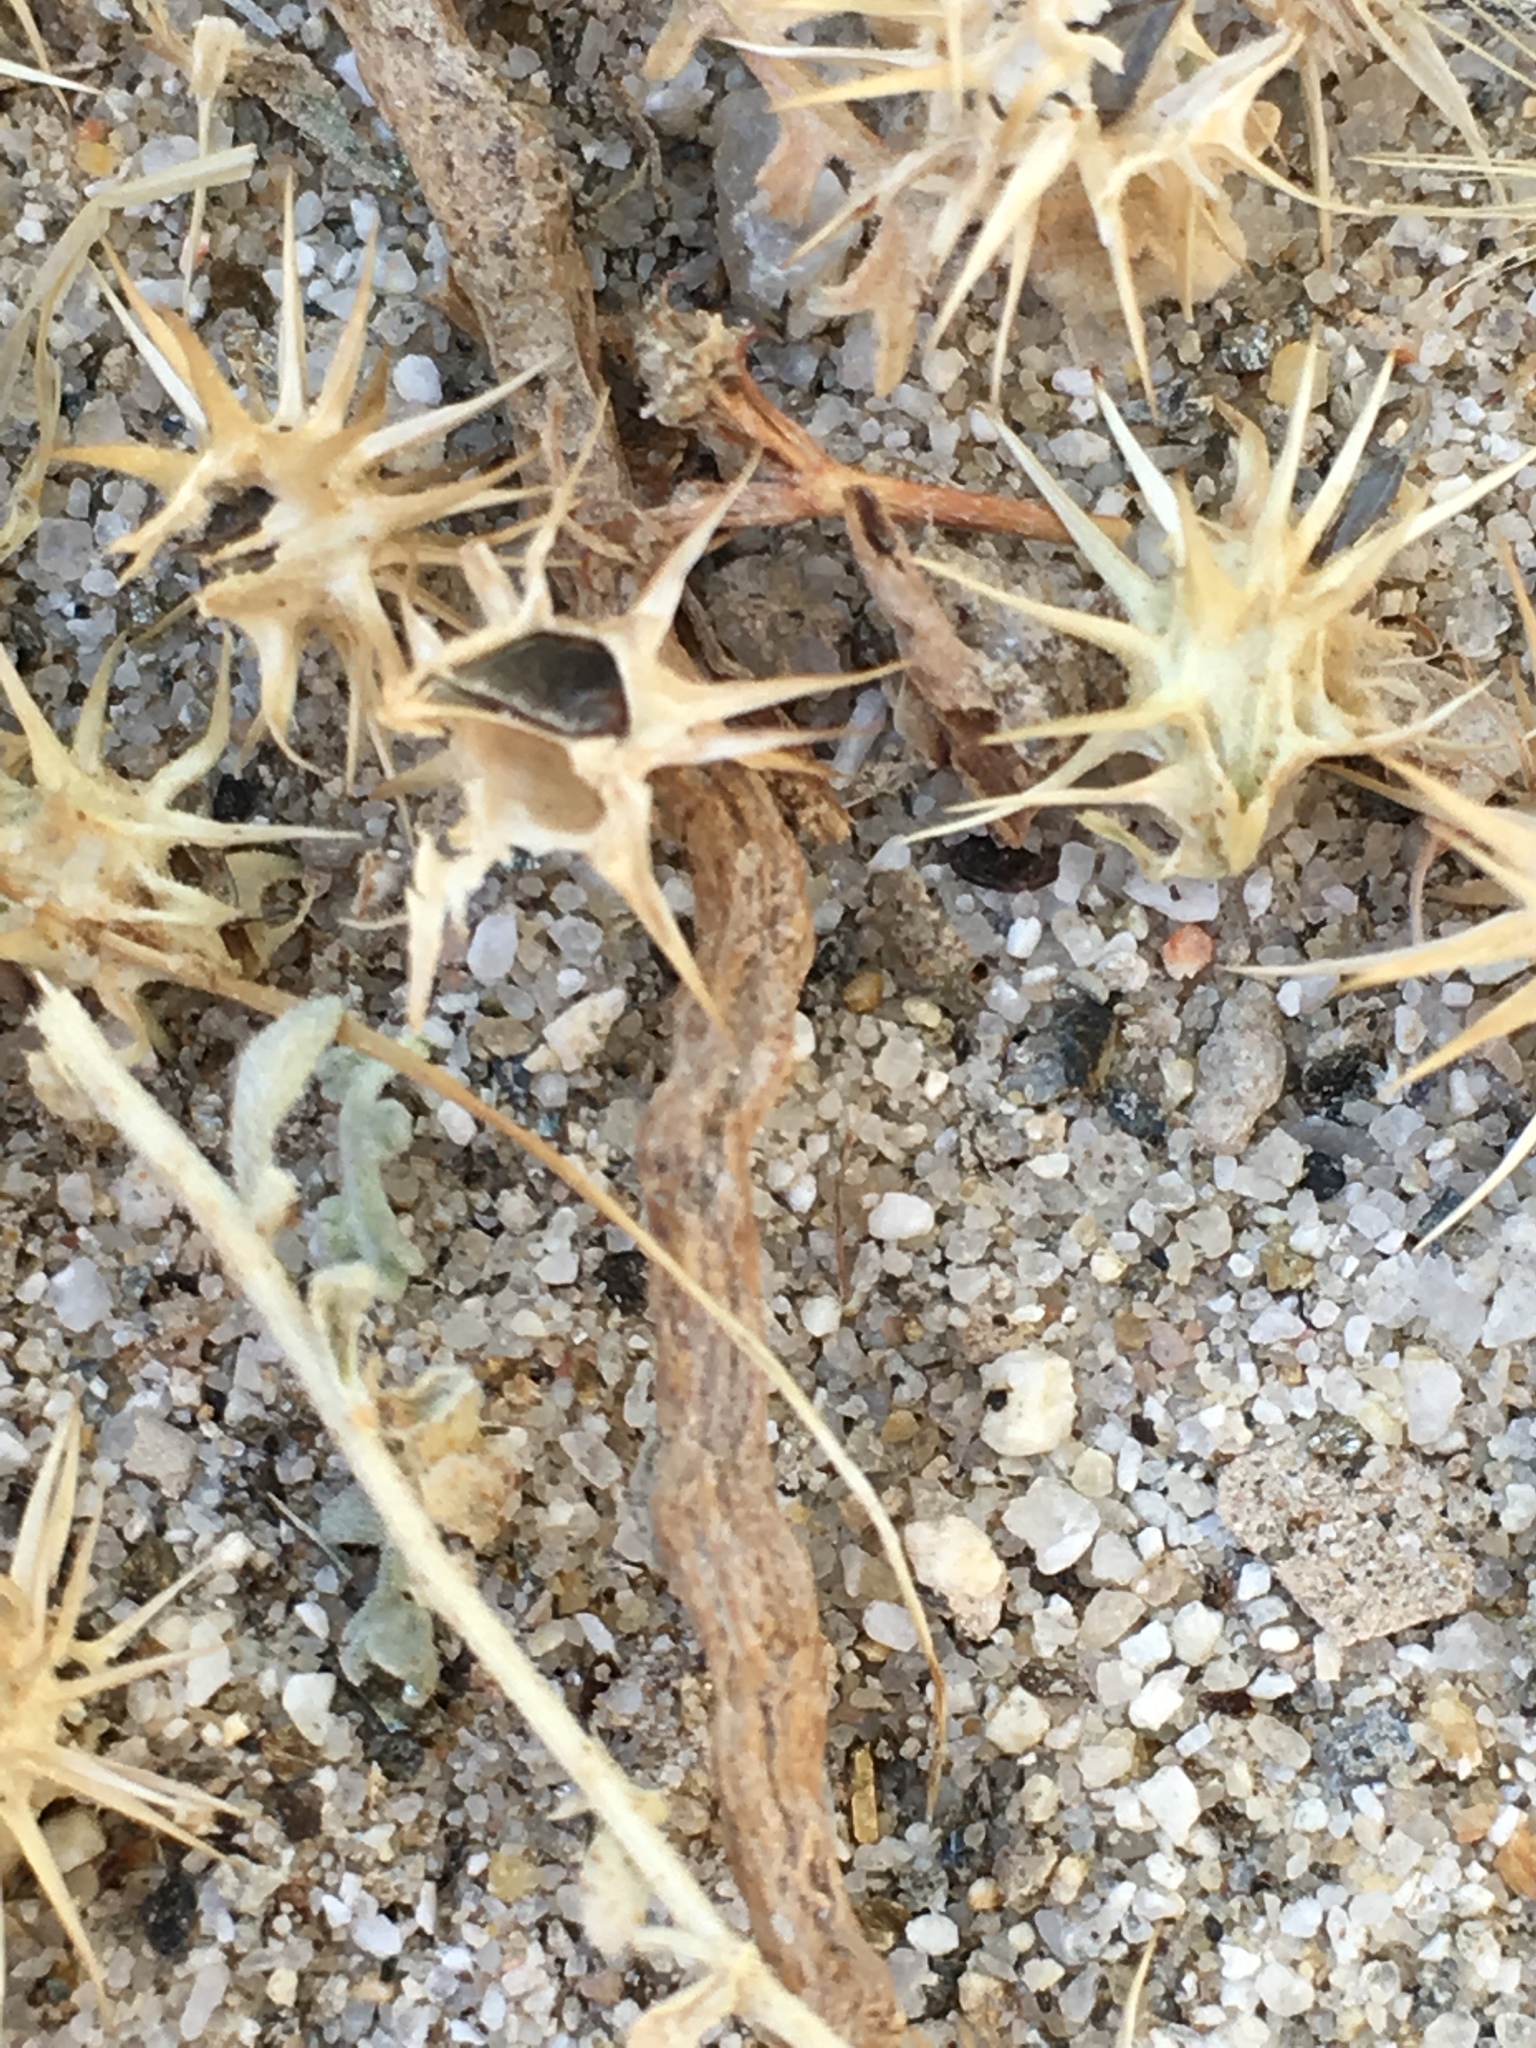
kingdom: Plantae
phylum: Tracheophyta
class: Magnoliopsida
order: Asterales
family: Asteraceae
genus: Ambrosia
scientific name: Ambrosia dumosa
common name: Bur-sage
